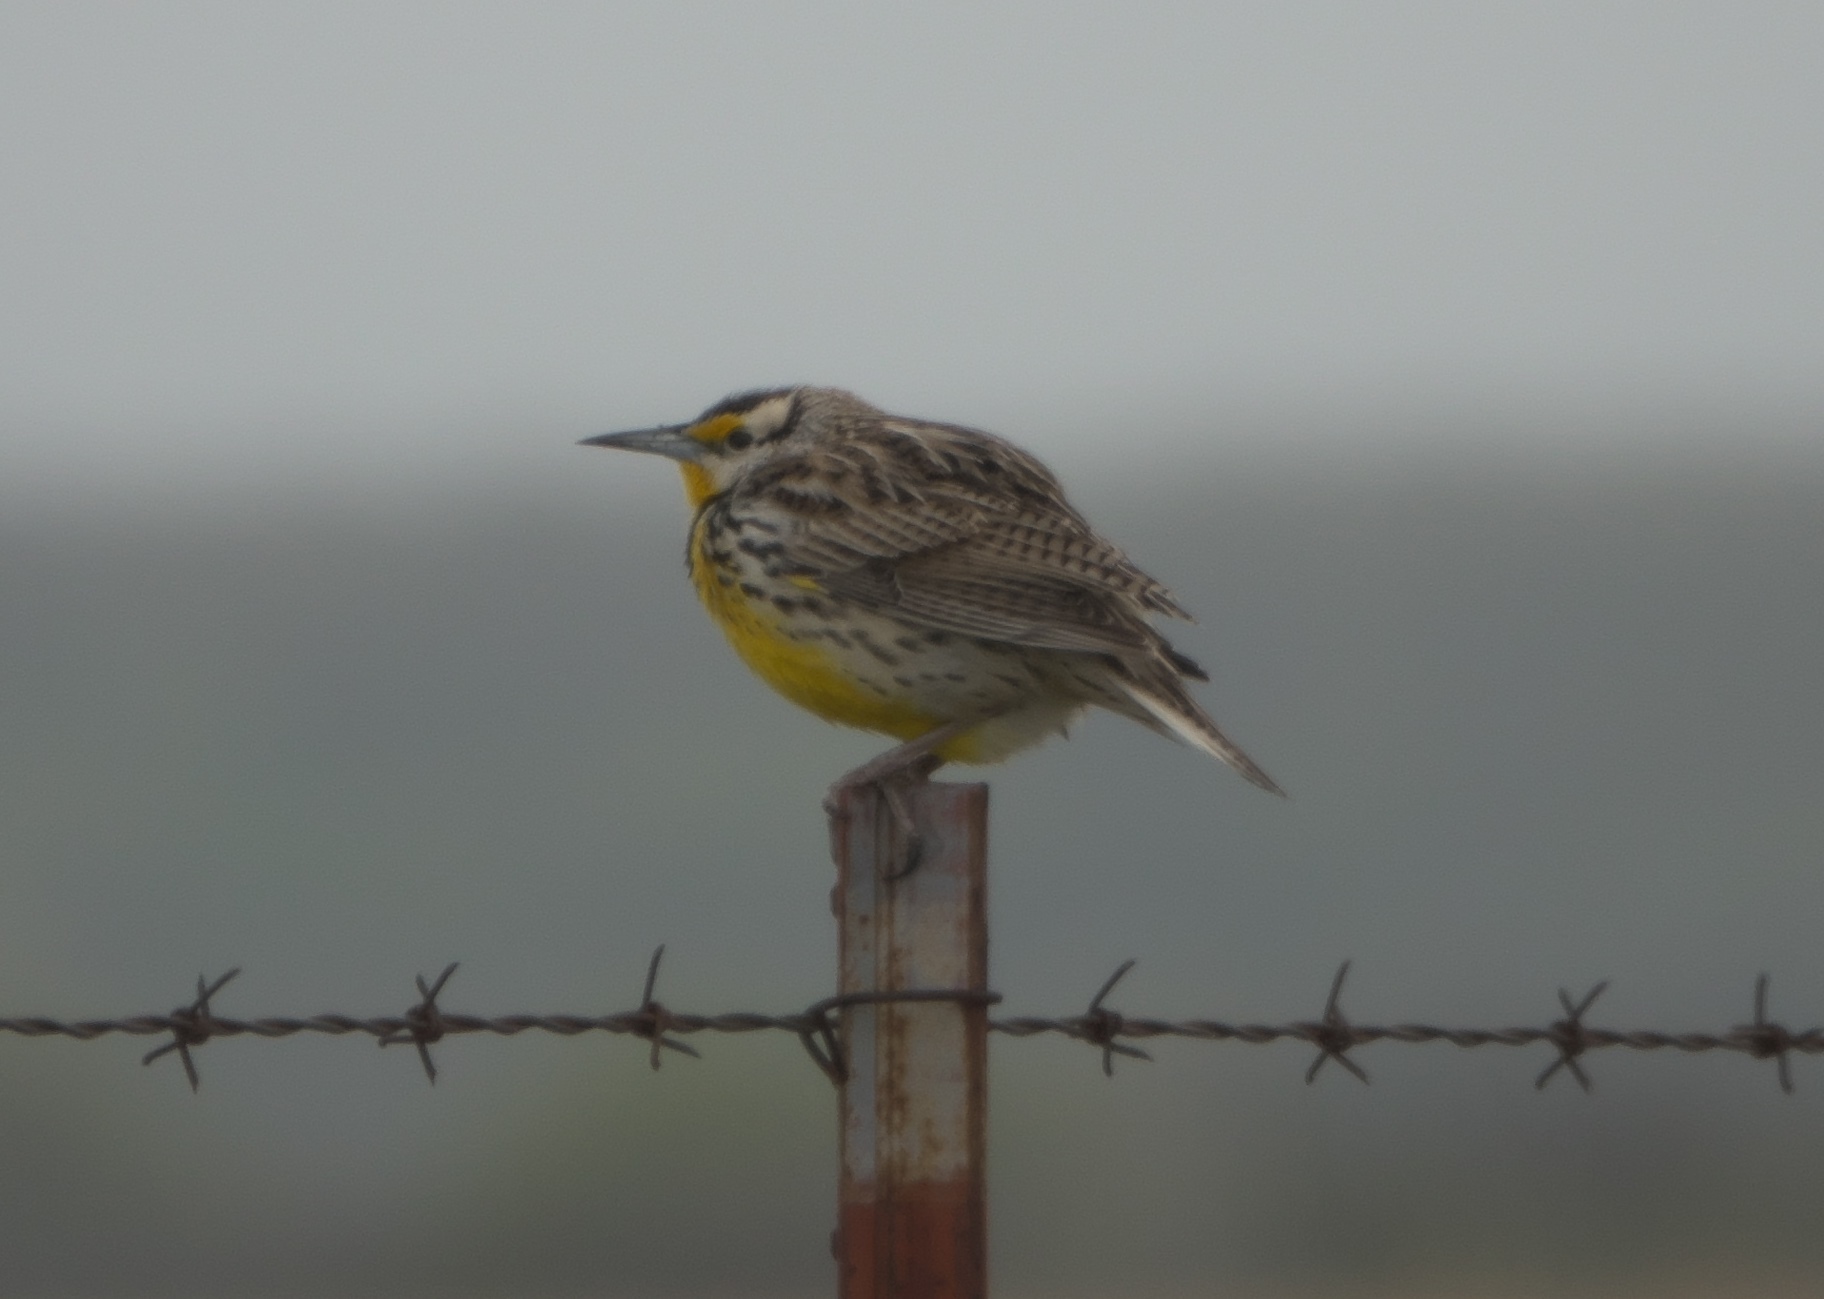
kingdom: Animalia
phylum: Chordata
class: Aves
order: Passeriformes
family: Icteridae
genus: Sturnella
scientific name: Sturnella magna
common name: Eastern meadowlark
